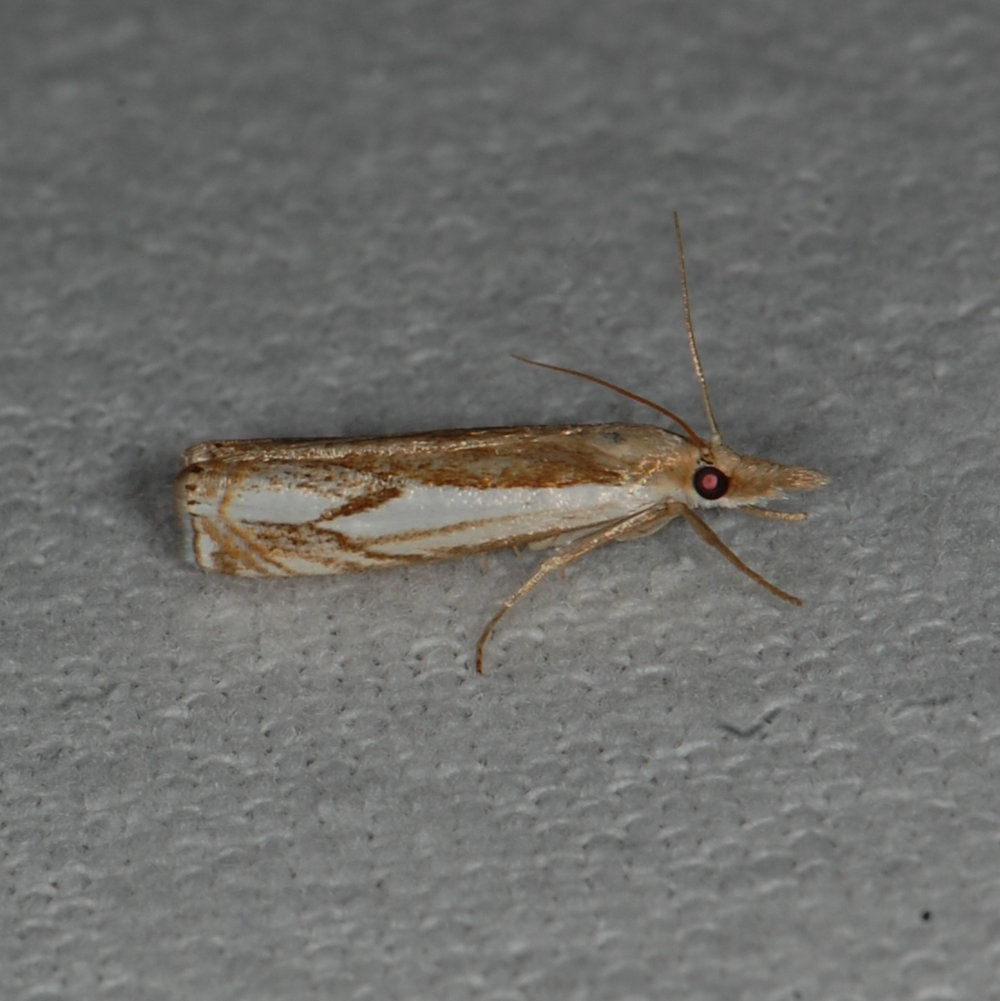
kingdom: Animalia
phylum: Arthropoda
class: Insecta
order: Lepidoptera
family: Crambidae
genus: Crambus
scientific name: Crambus agitatellus
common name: Double-banded grass-veneer
